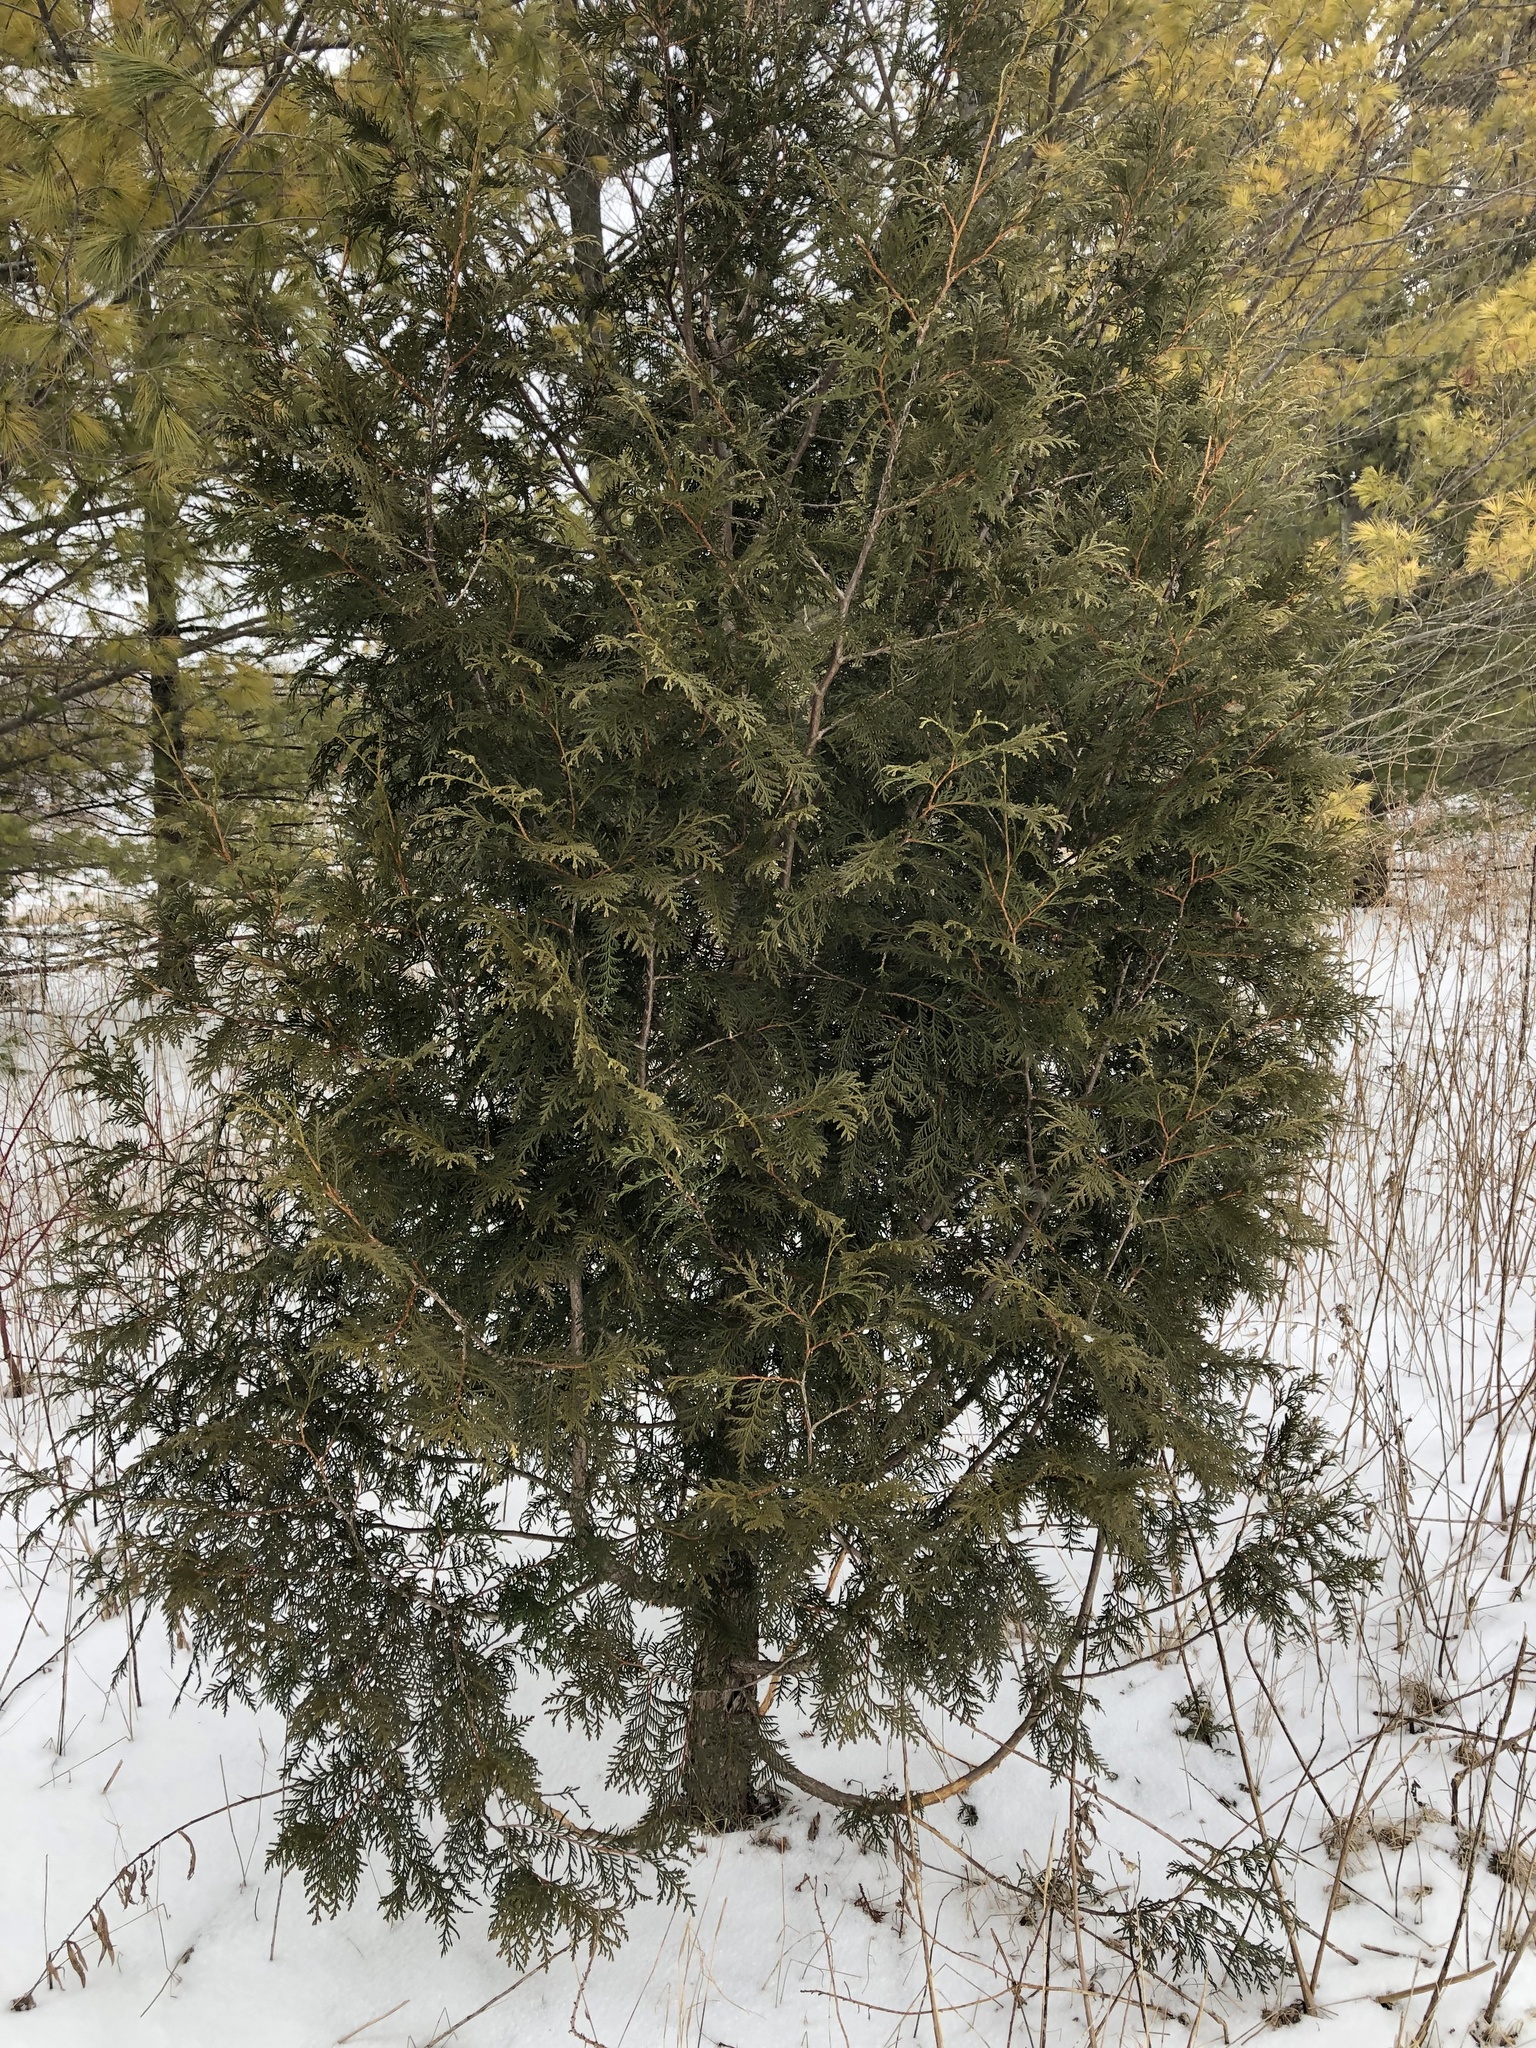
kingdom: Plantae
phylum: Tracheophyta
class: Pinopsida
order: Pinales
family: Cupressaceae
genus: Thuja
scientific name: Thuja occidentalis
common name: Northern white-cedar
